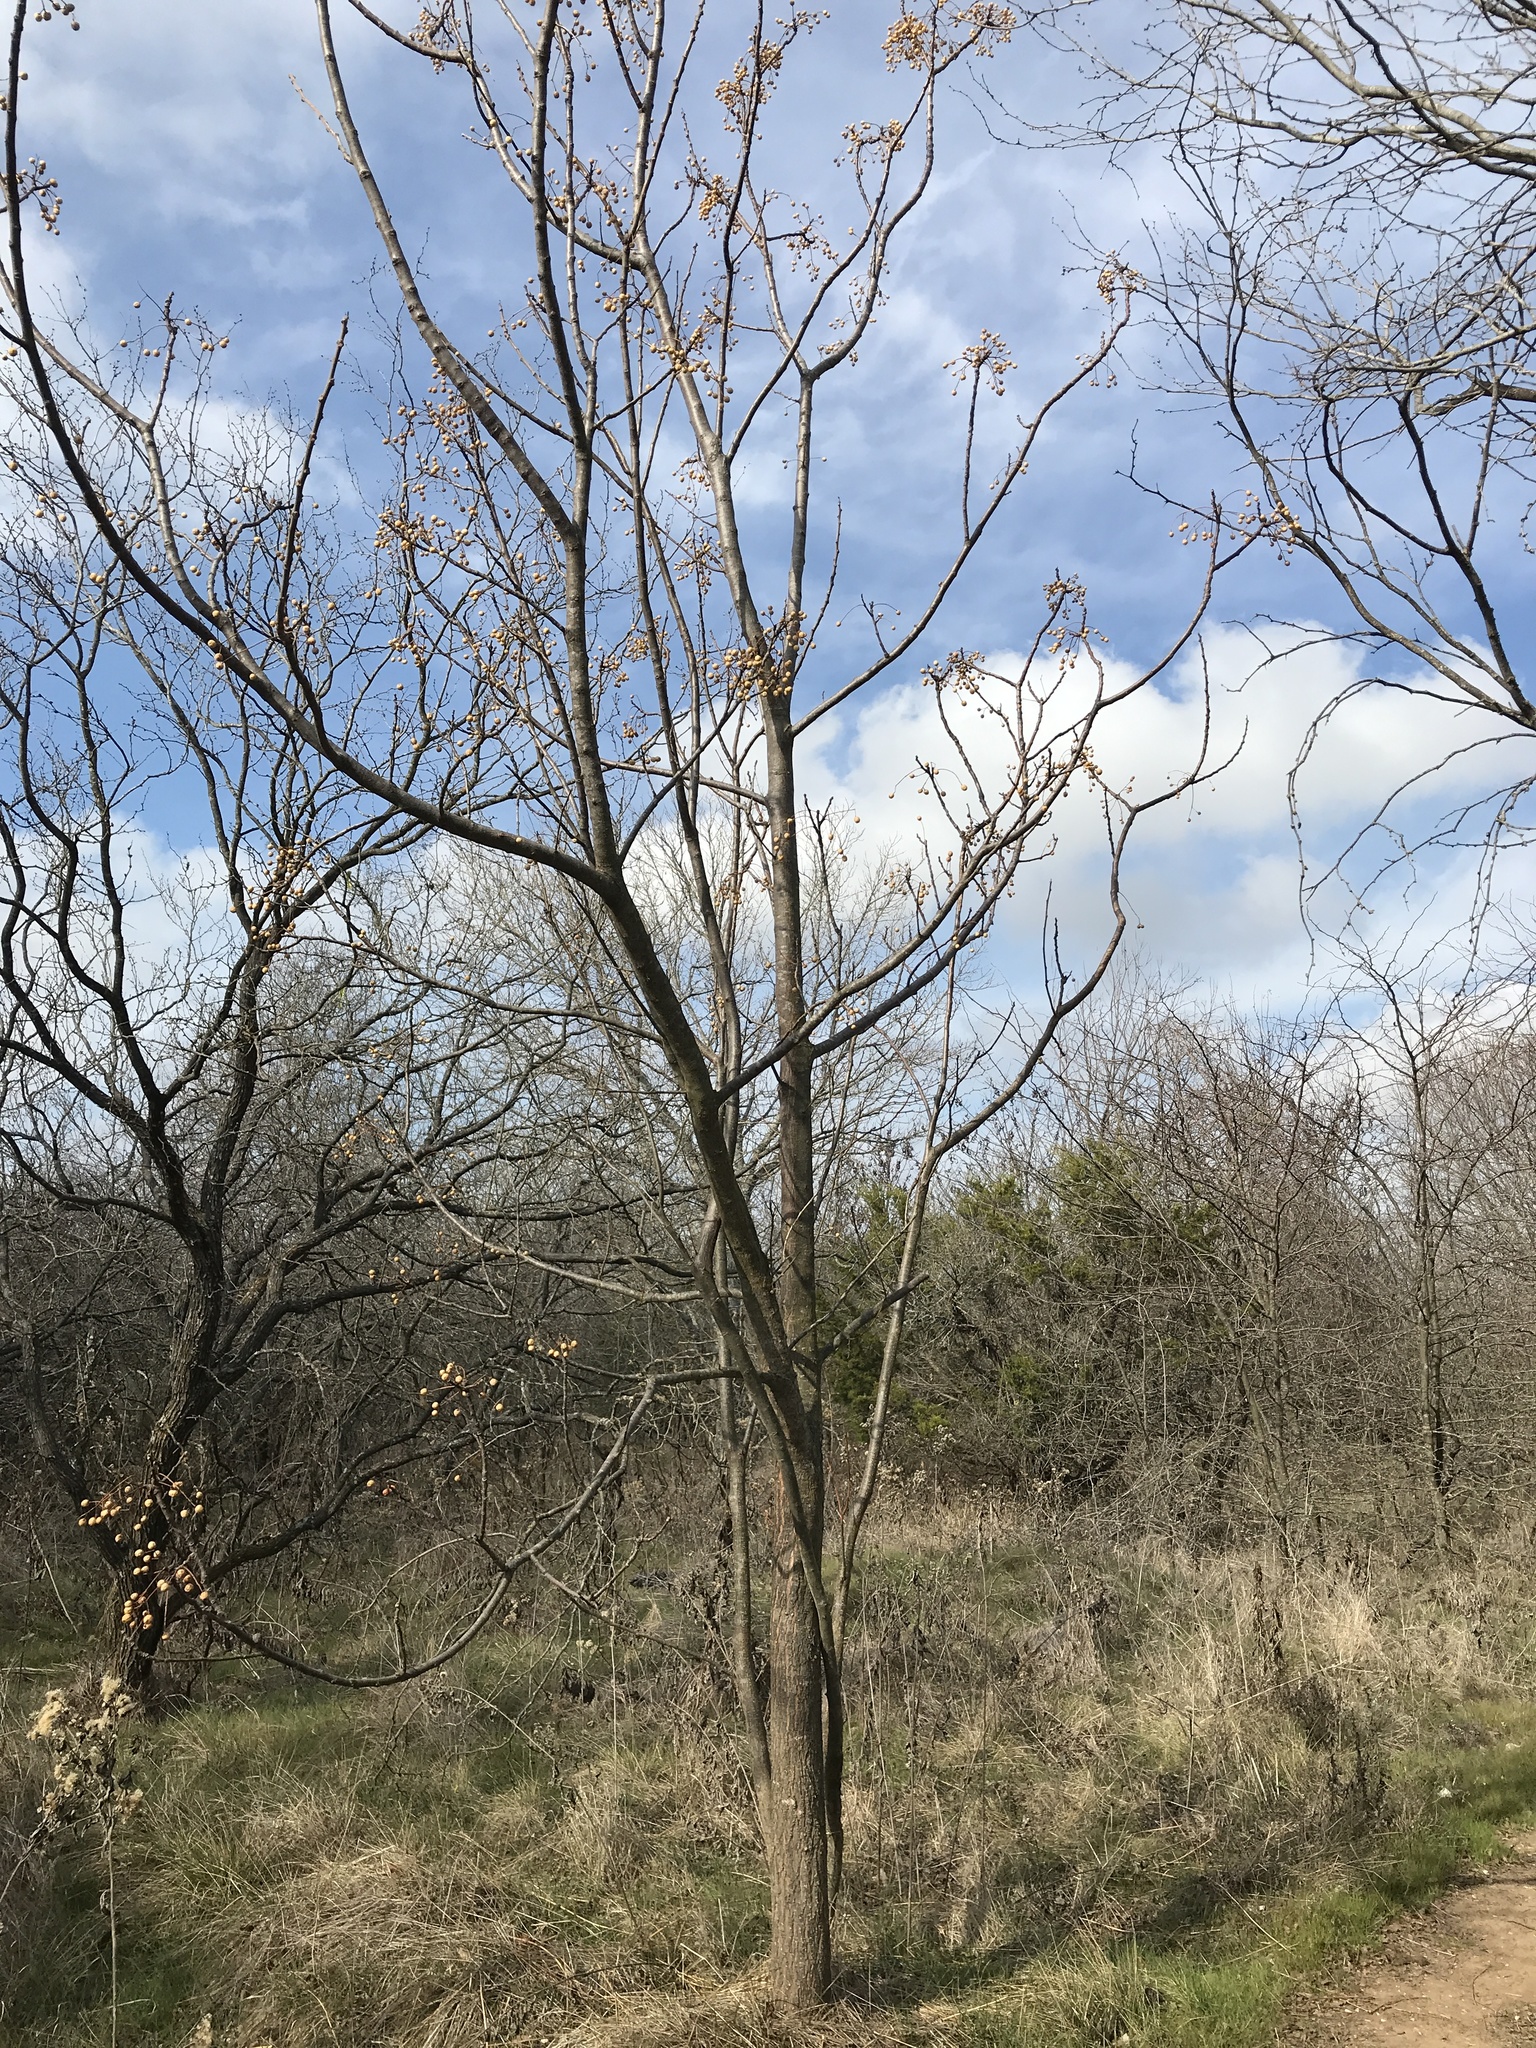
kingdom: Plantae
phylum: Tracheophyta
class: Magnoliopsida
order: Sapindales
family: Meliaceae
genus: Melia
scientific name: Melia azedarach
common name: Chinaberrytree
